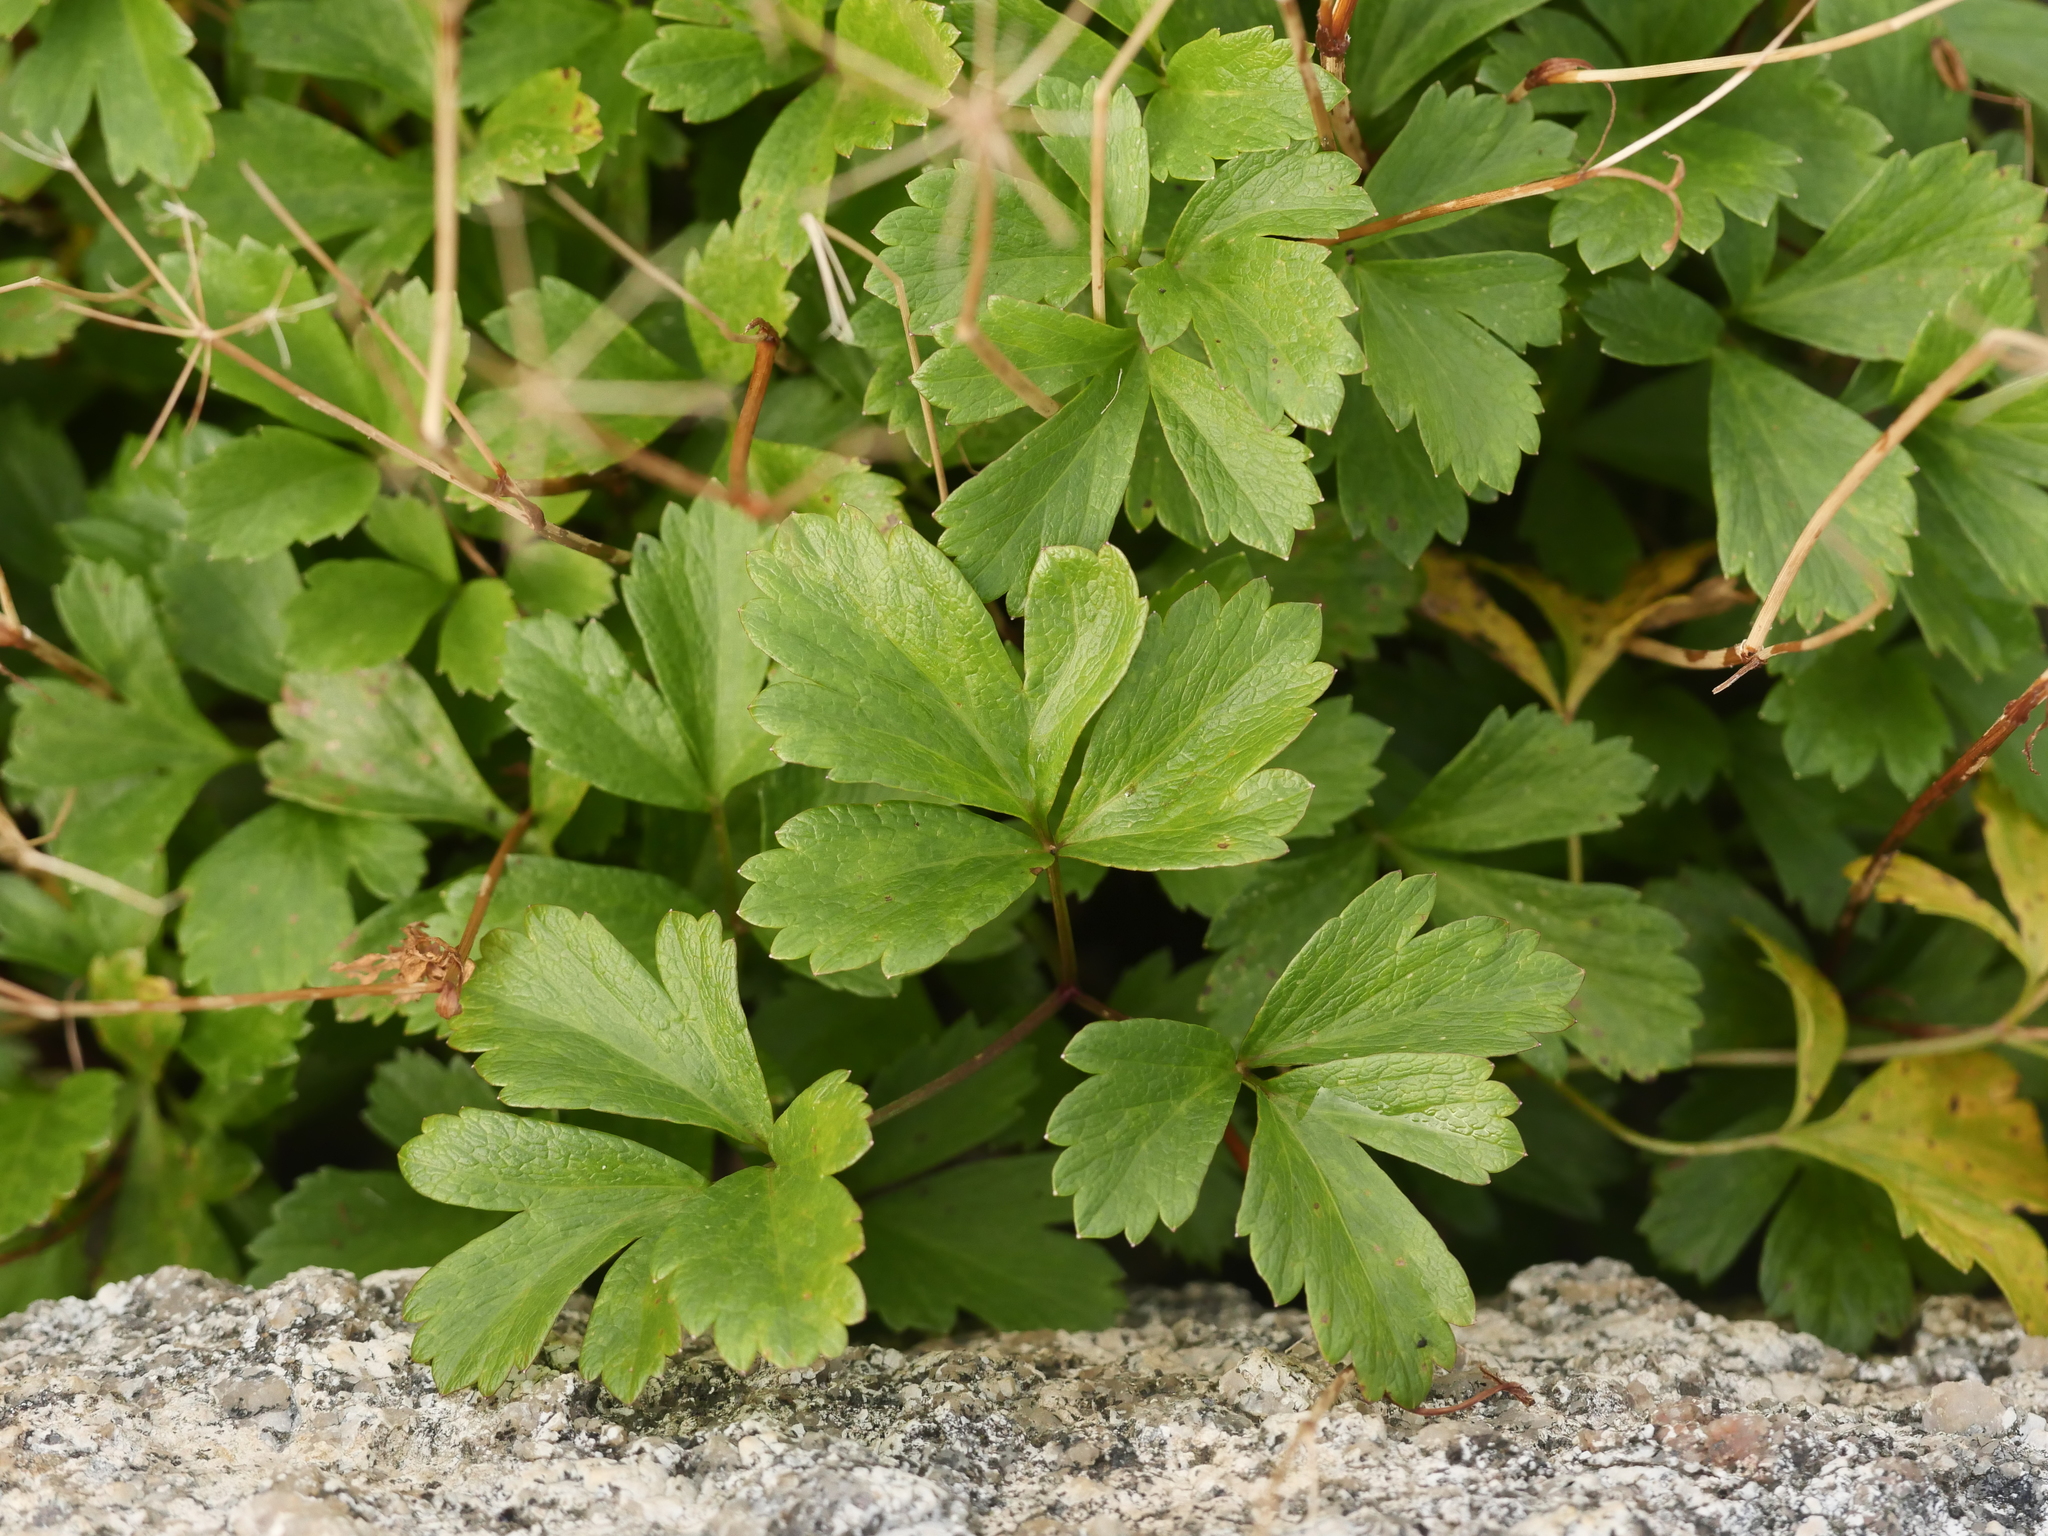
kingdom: Plantae
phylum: Tracheophyta
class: Magnoliopsida
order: Apiales
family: Apiaceae
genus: Ligusticum
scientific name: Ligusticum scothicum
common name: Beach lovage
